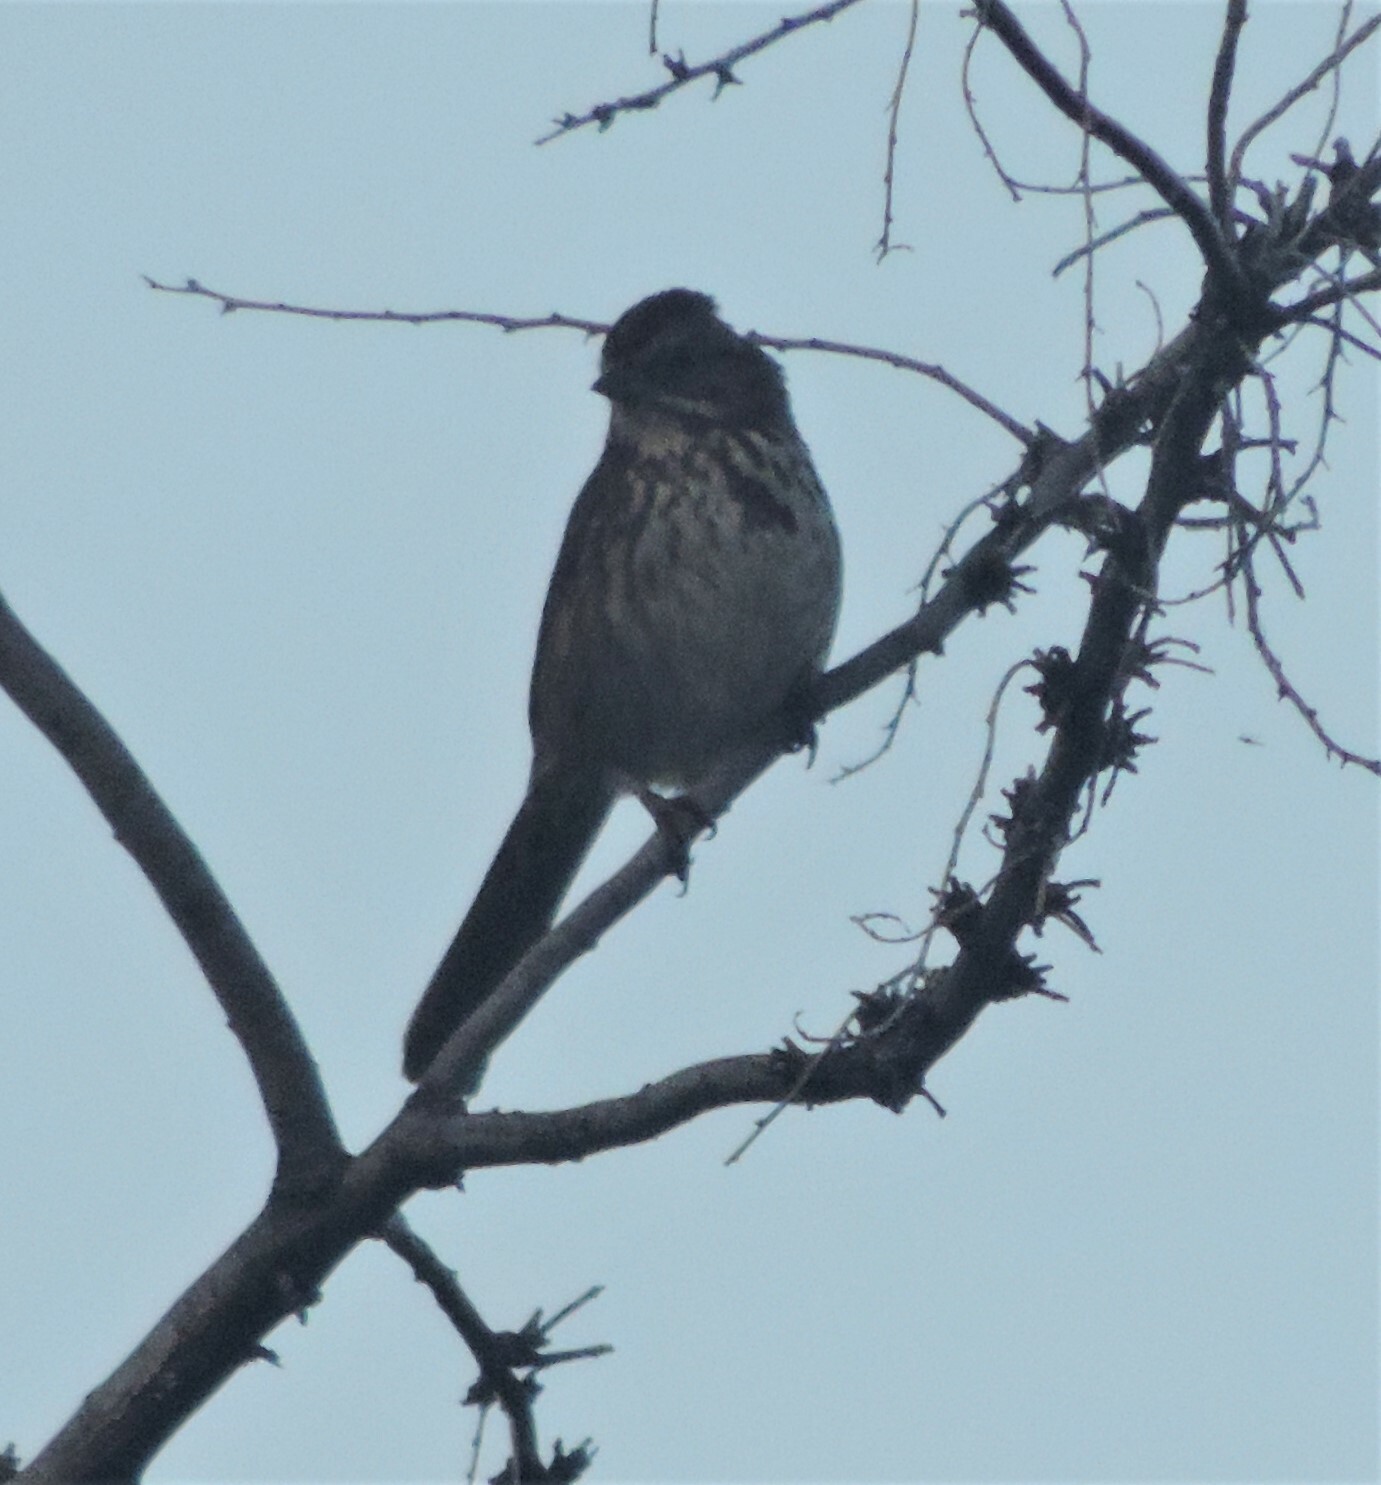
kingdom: Animalia
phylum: Chordata
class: Aves
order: Passeriformes
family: Passerellidae
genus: Melospiza
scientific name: Melospiza melodia
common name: Song sparrow
